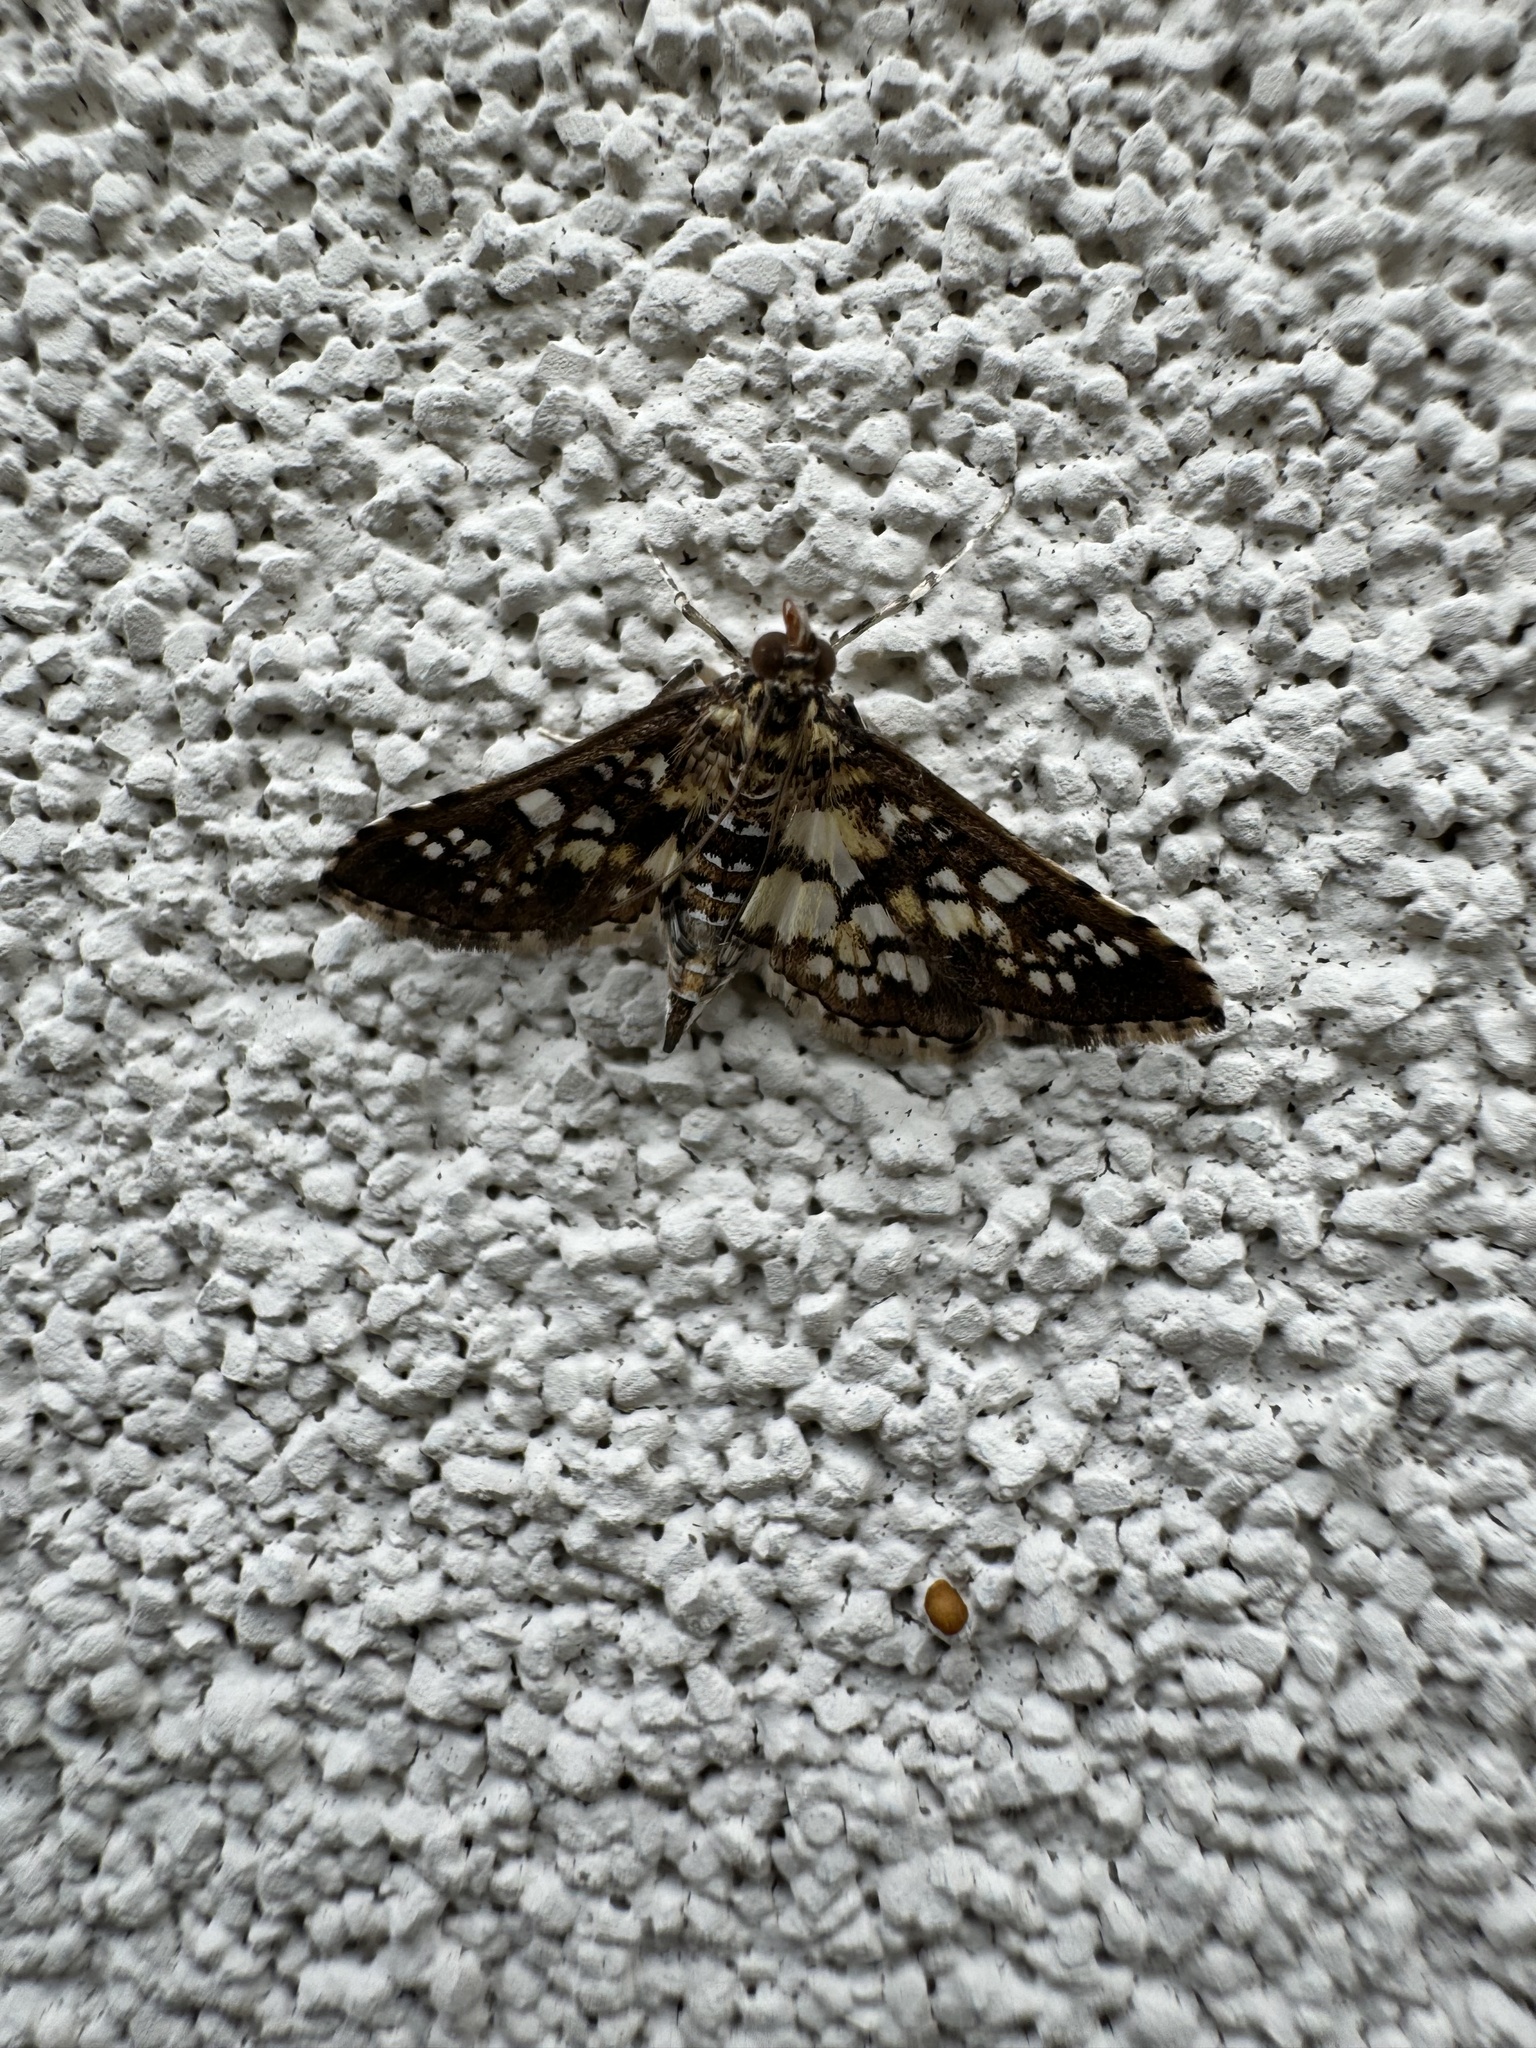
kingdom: Animalia
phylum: Arthropoda
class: Insecta
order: Lepidoptera
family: Crambidae
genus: Samea
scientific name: Samea ecclesialis
